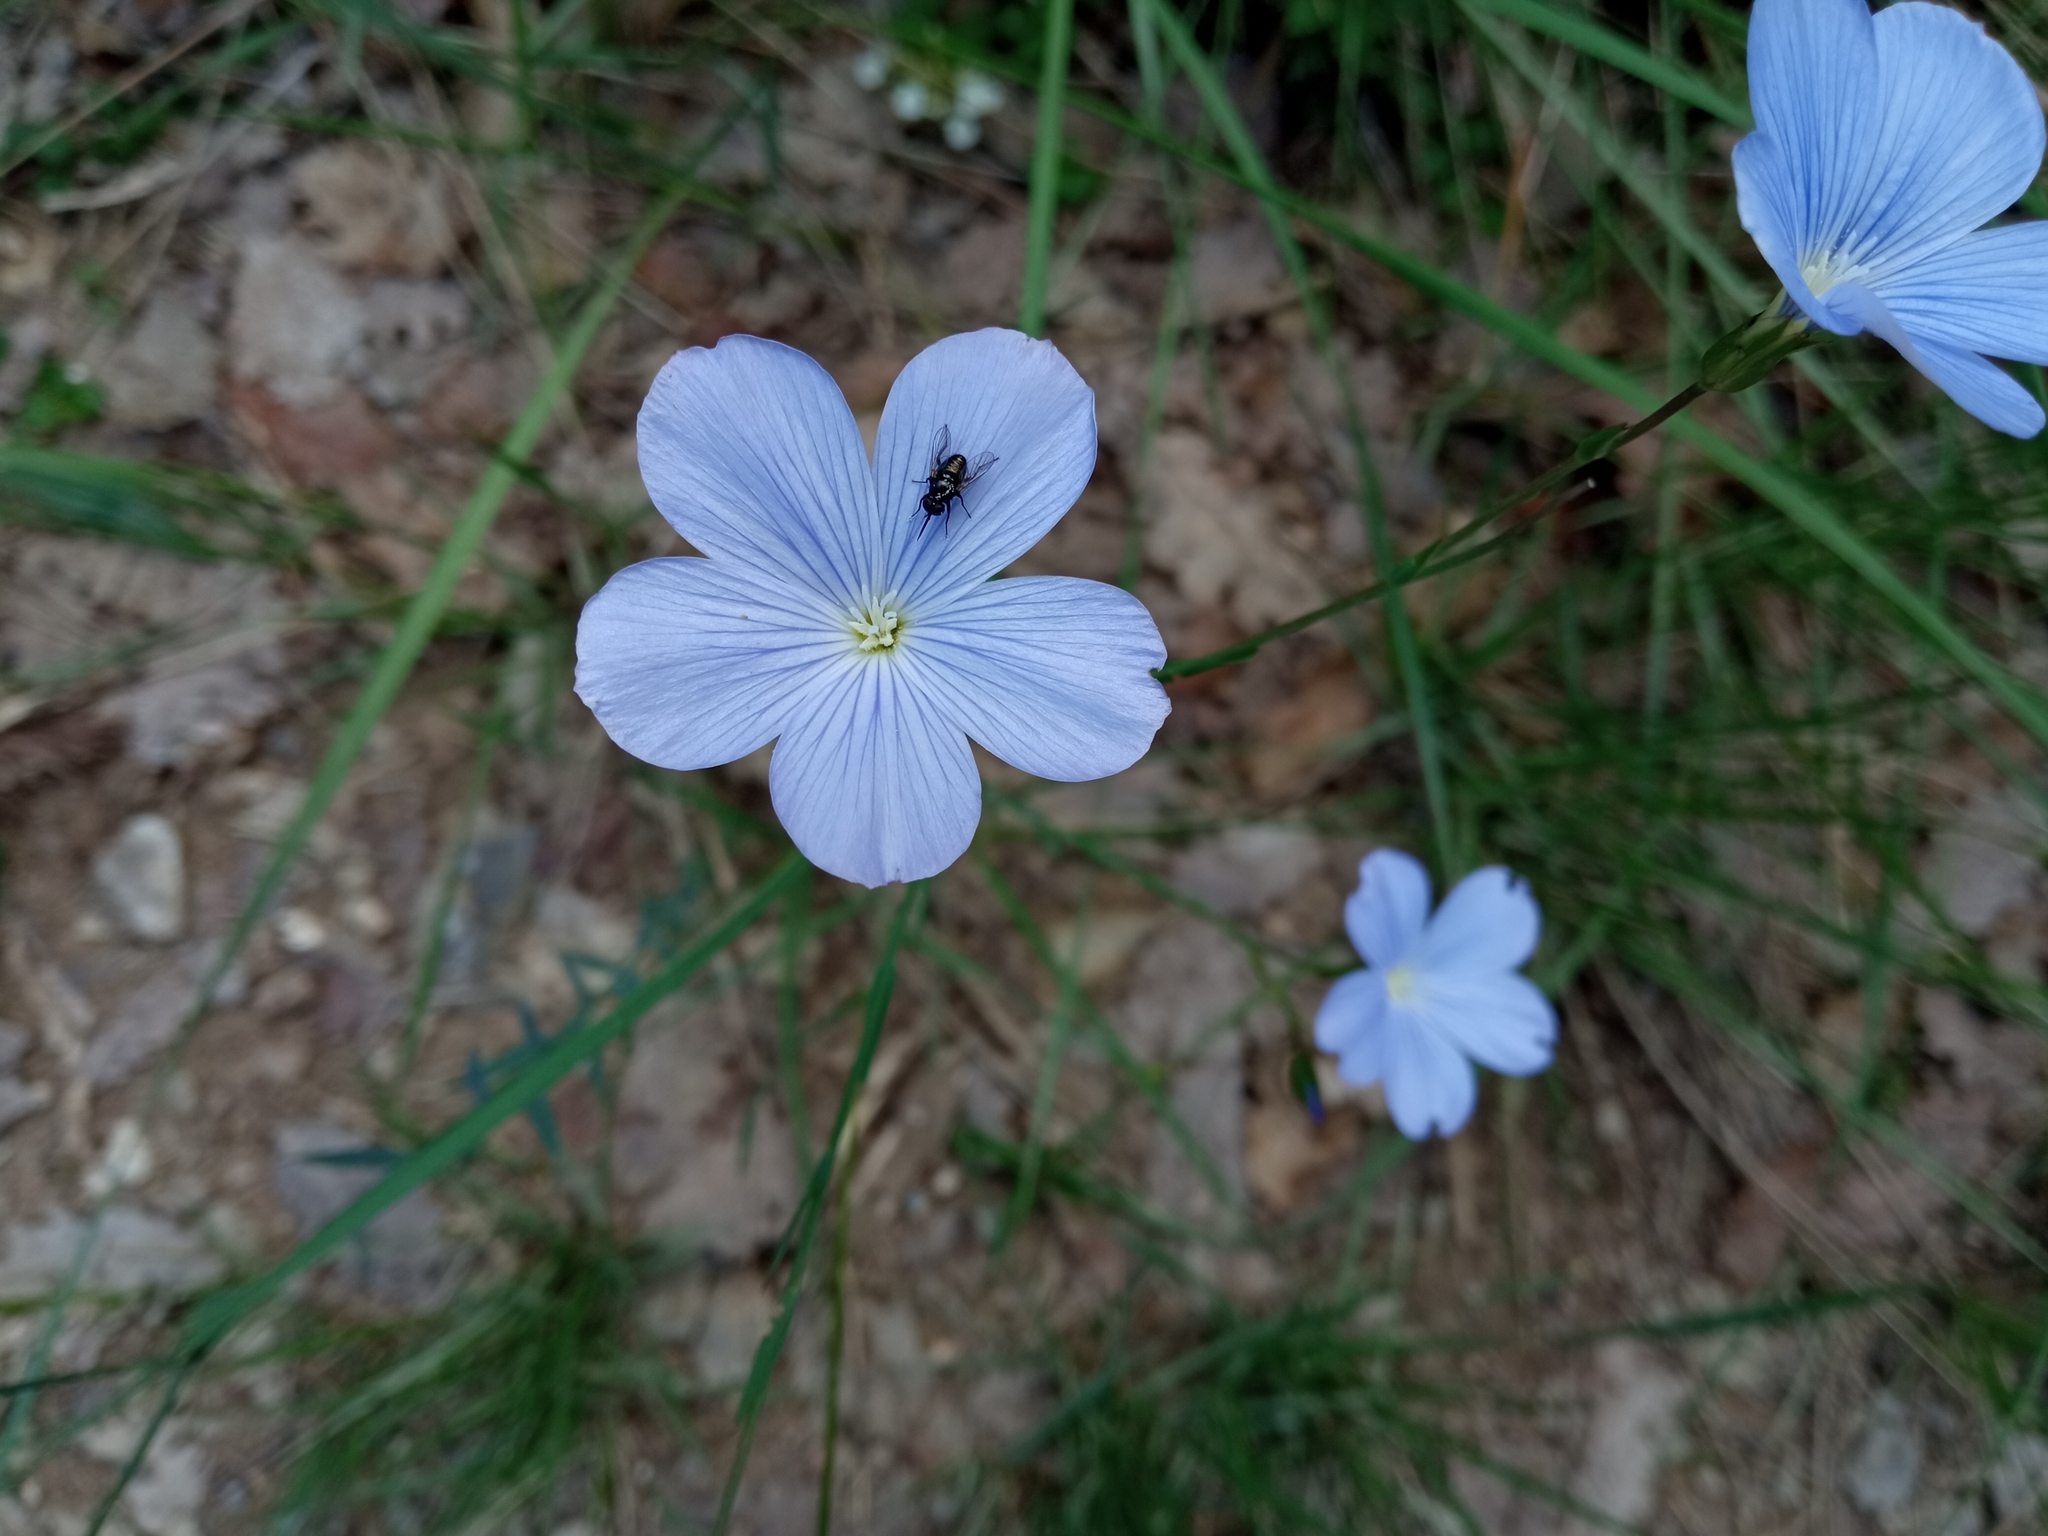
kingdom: Plantae
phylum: Tracheophyta
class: Magnoliopsida
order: Malpighiales
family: Linaceae
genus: Linum
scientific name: Linum narbonense
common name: Flax
